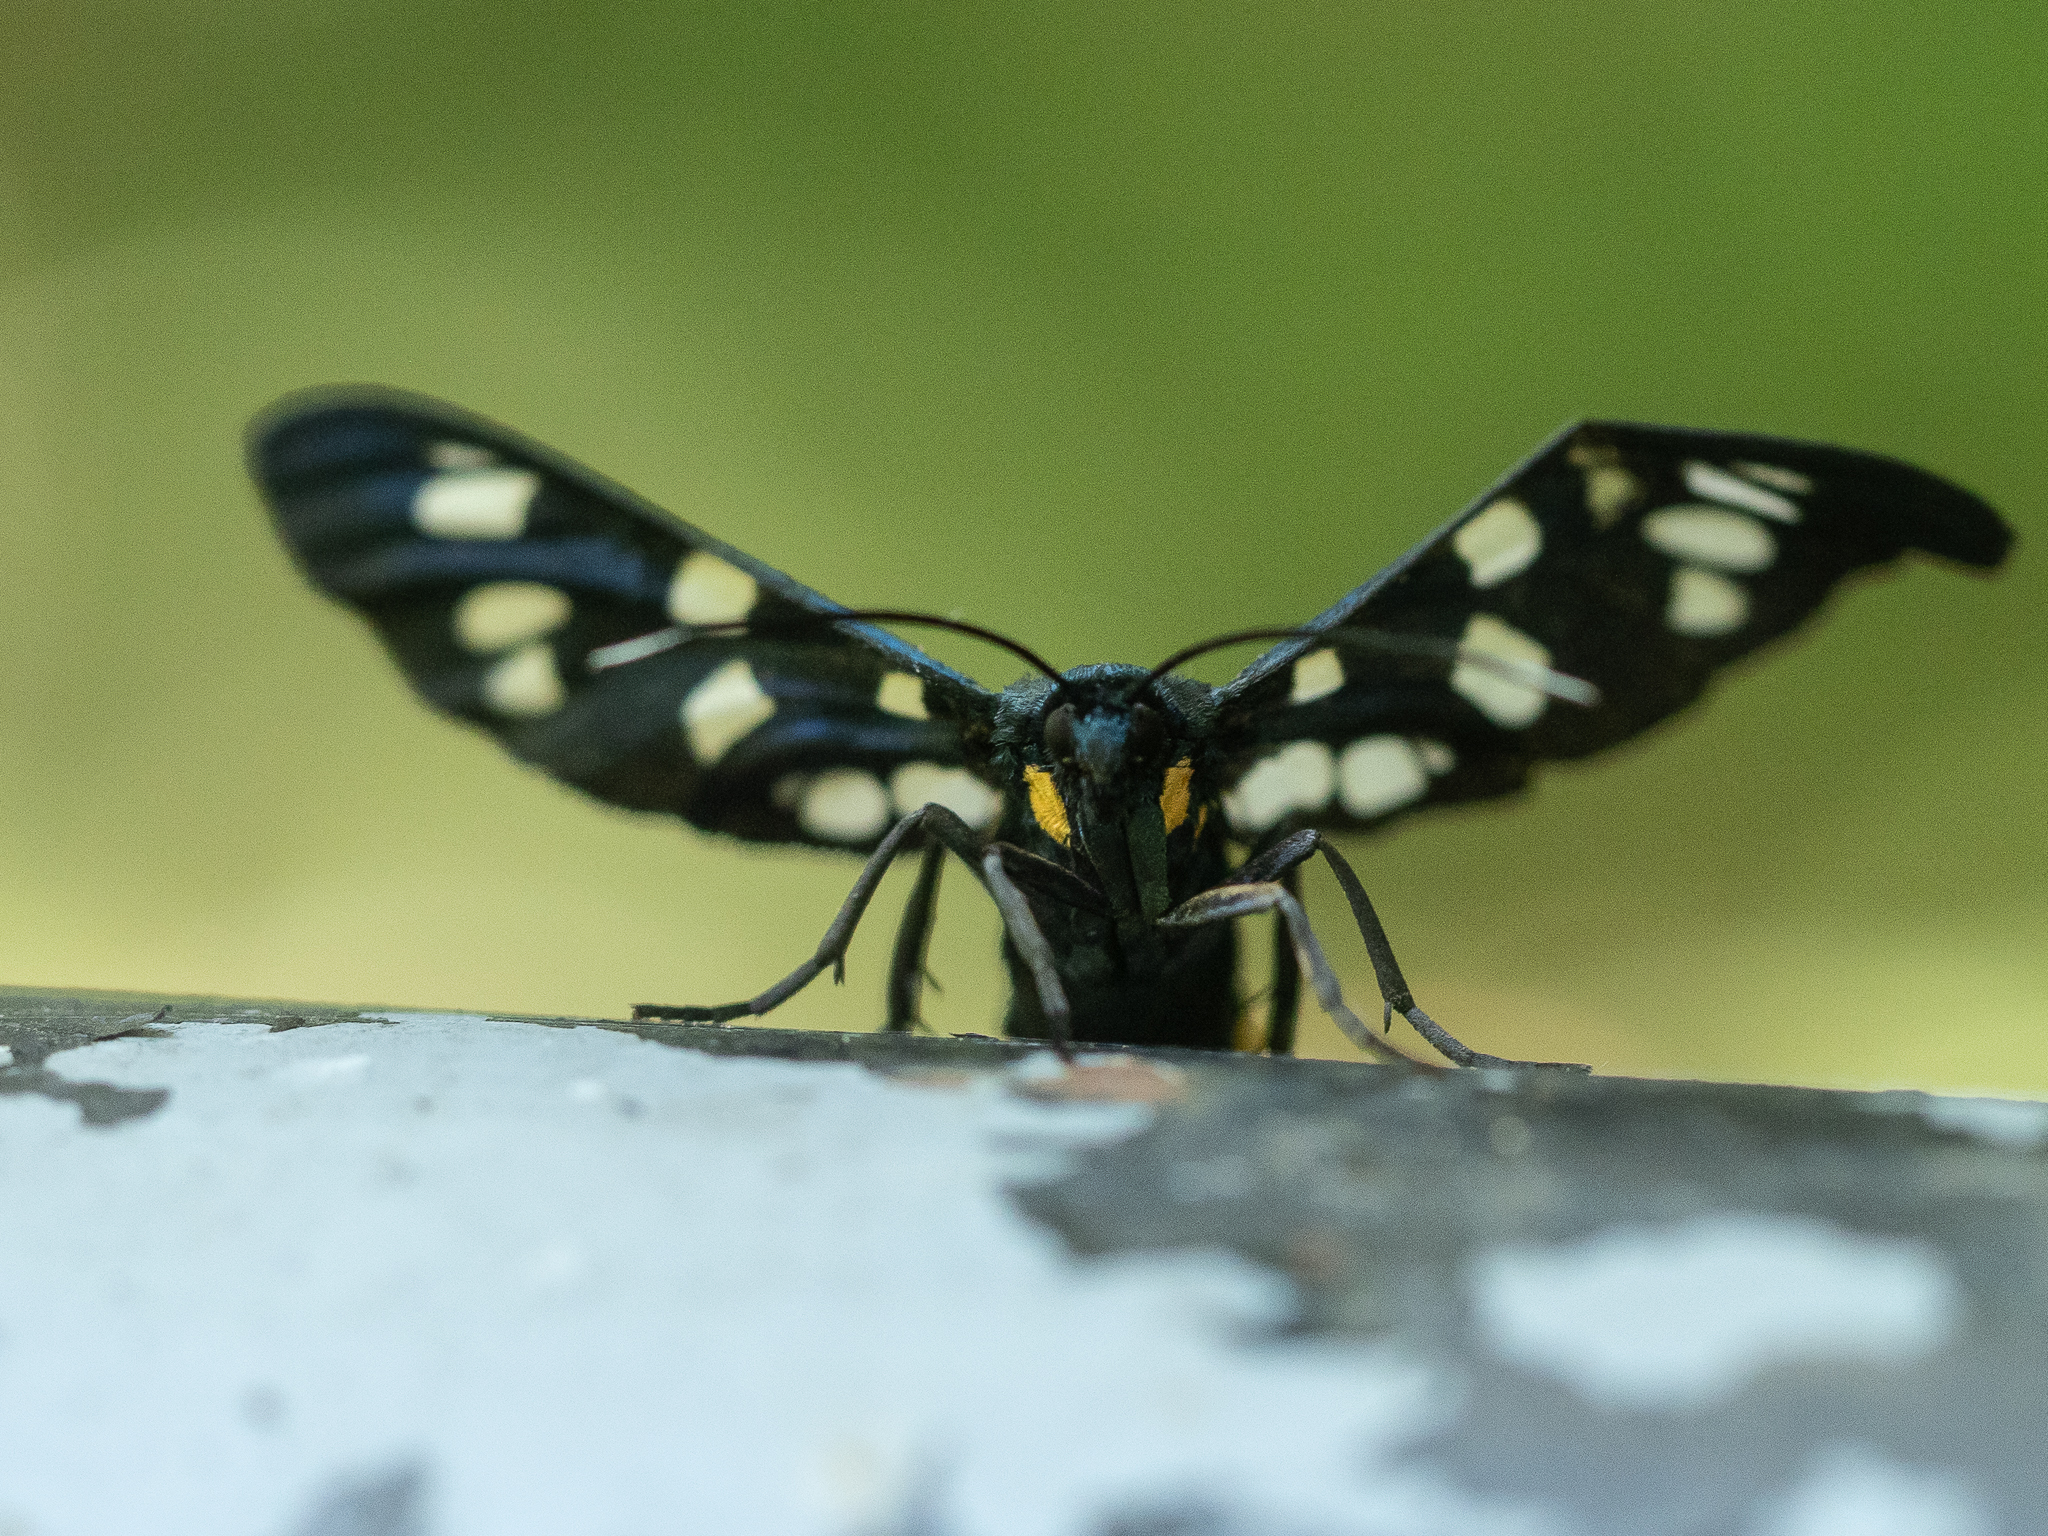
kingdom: Animalia
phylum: Arthropoda
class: Insecta
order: Lepidoptera
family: Erebidae
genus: Amata
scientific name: Amata phegea
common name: Nine-spotted
